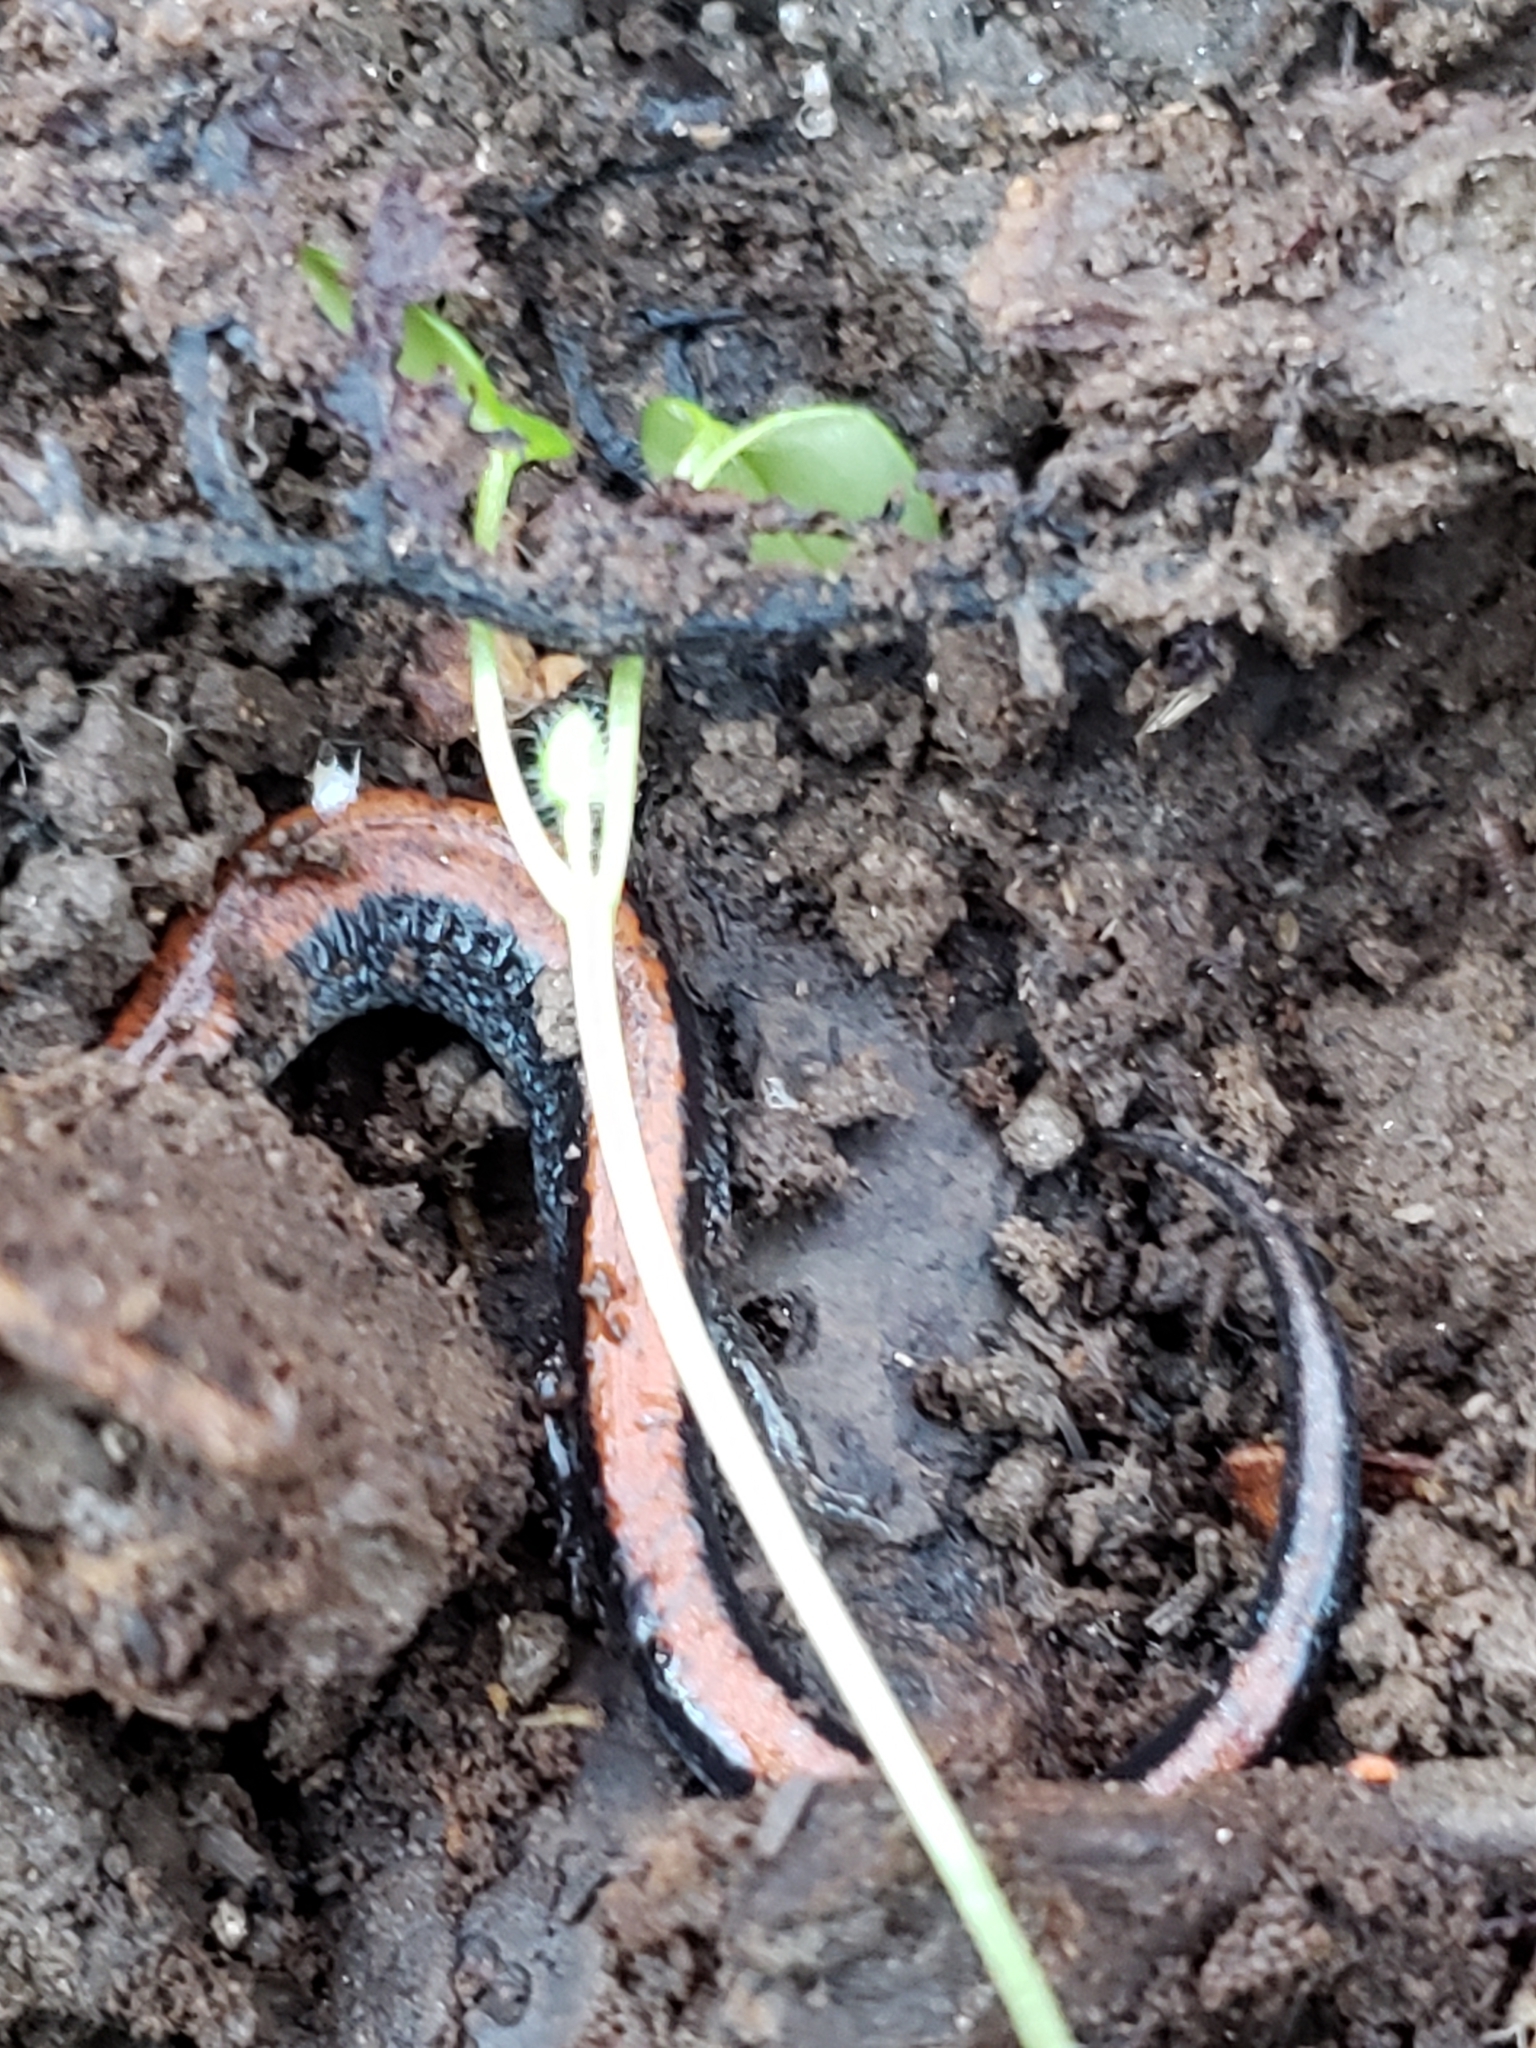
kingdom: Animalia
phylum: Chordata
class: Amphibia
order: Caudata
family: Plethodontidae
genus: Plethodon
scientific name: Plethodon cinereus
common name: Redback salamander
